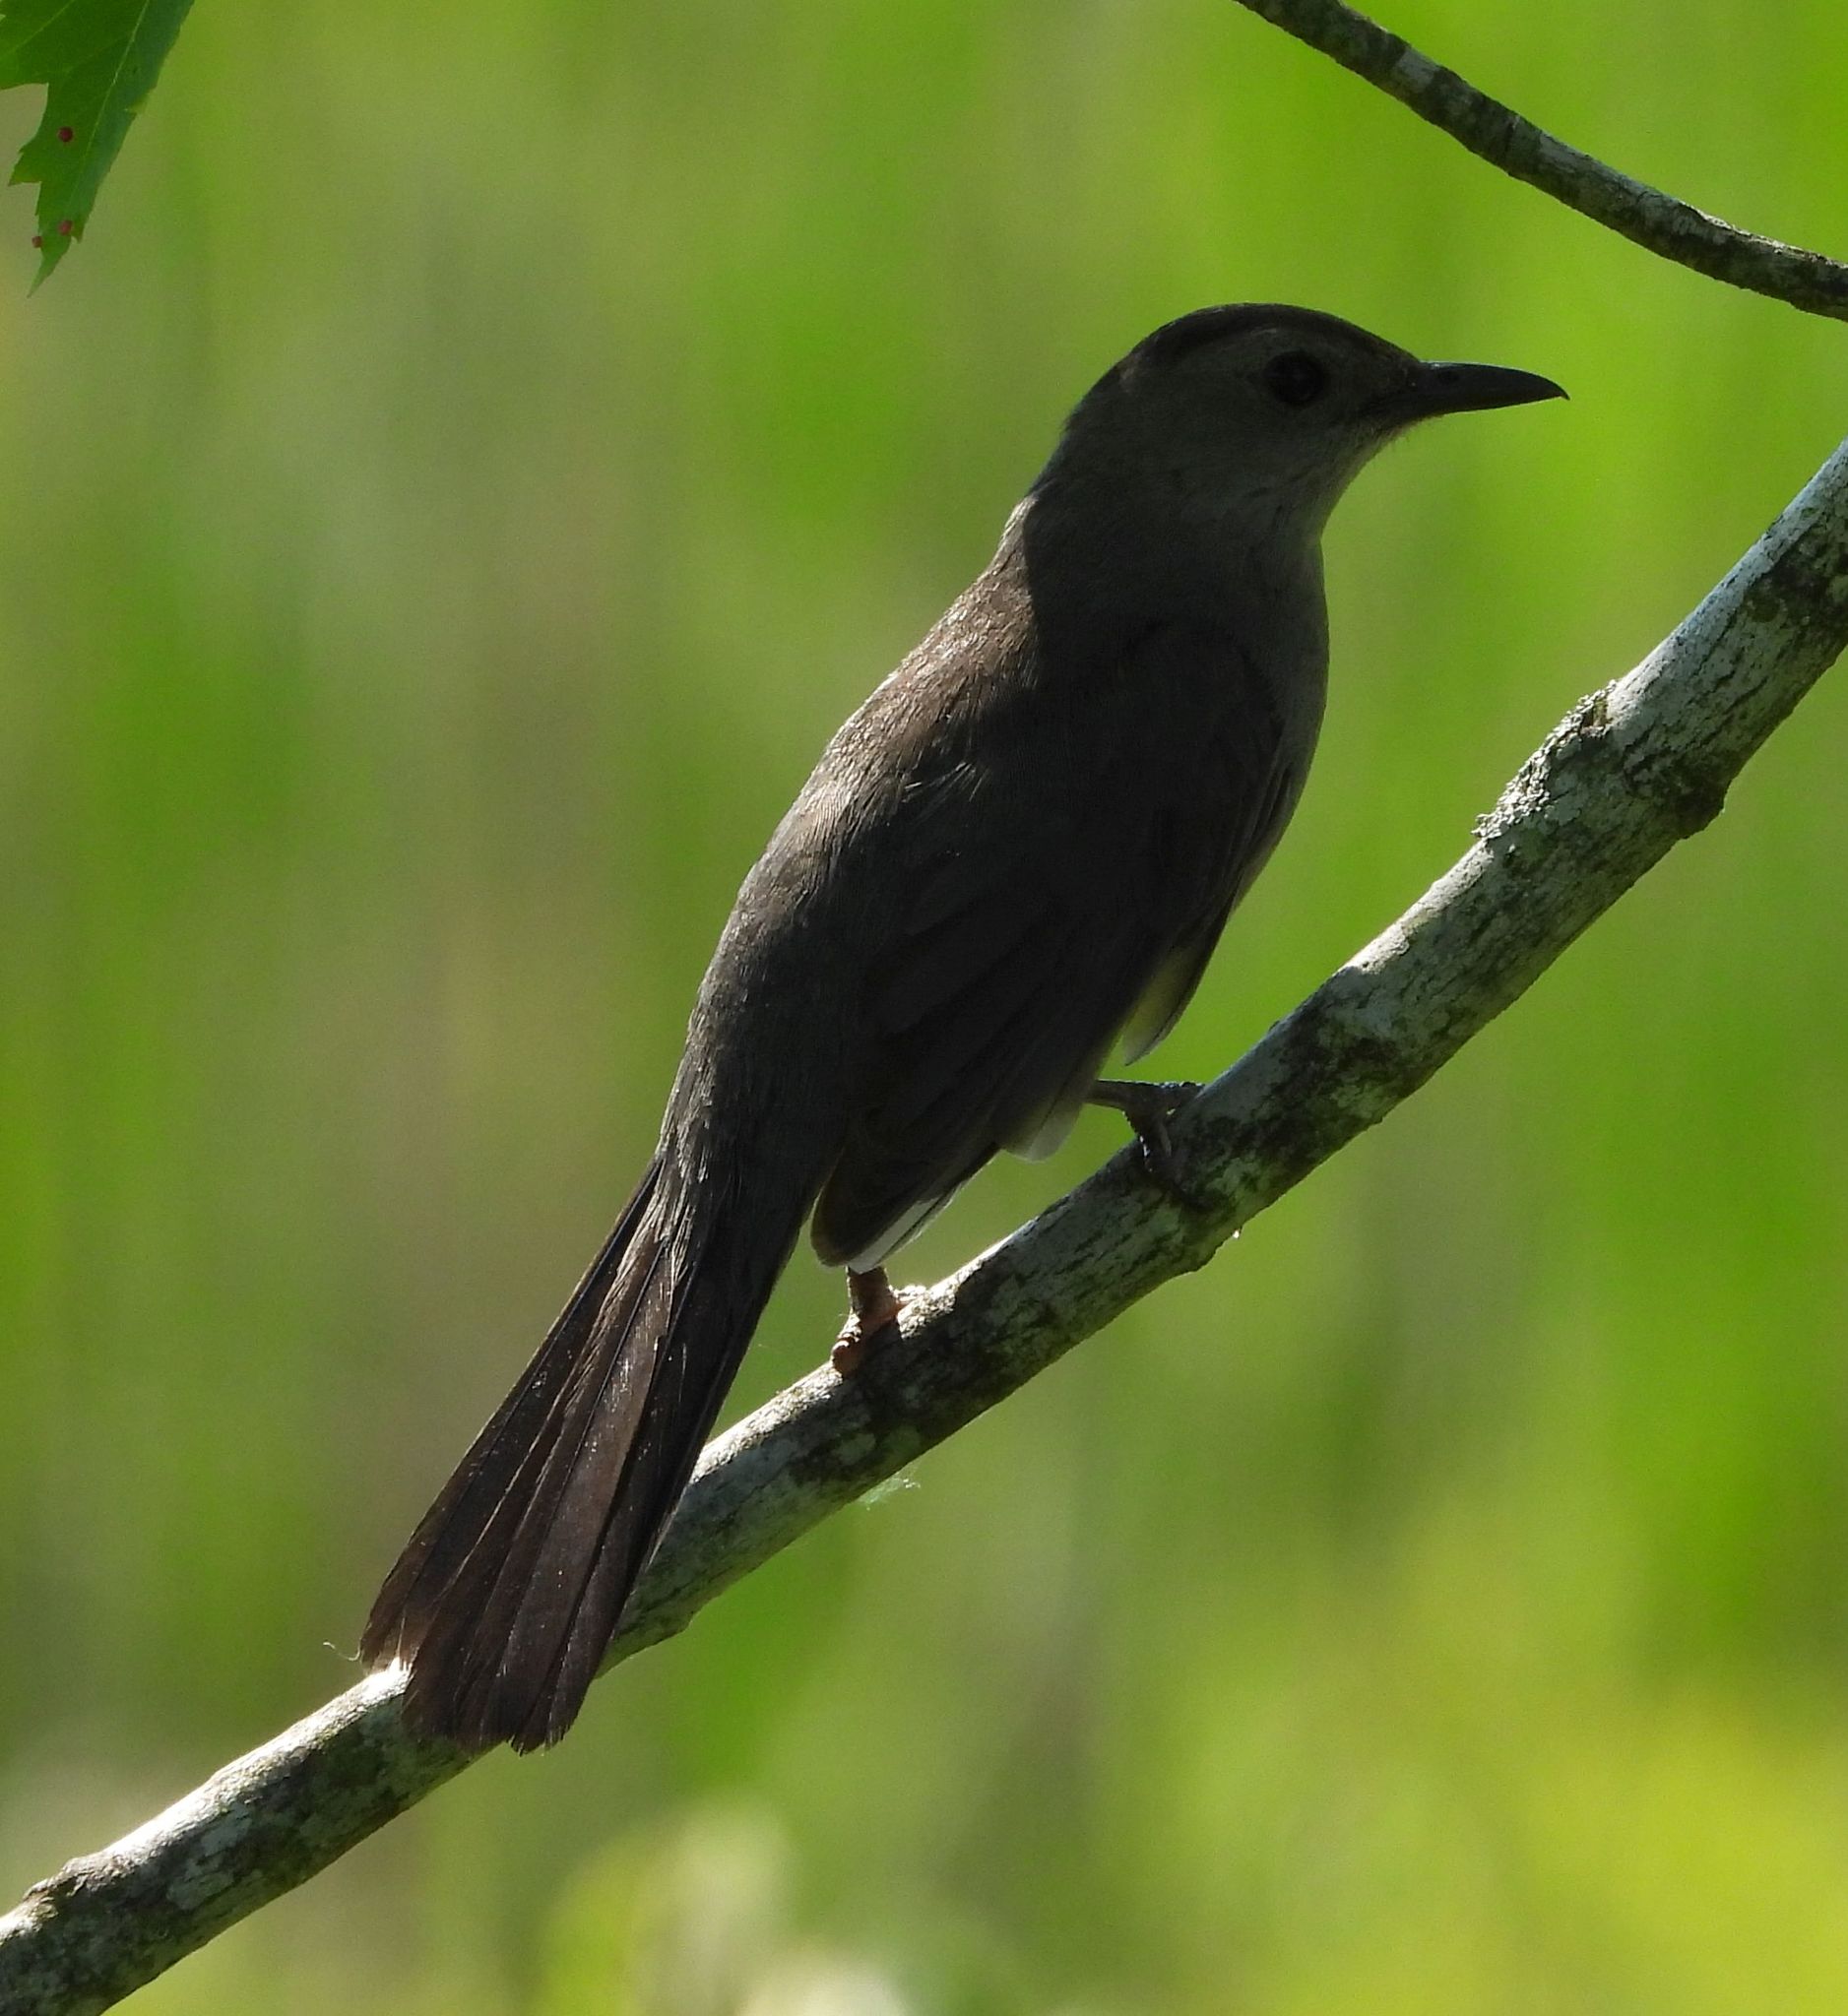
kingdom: Animalia
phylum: Chordata
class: Aves
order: Passeriformes
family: Mimidae
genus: Dumetella
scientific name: Dumetella carolinensis
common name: Gray catbird
